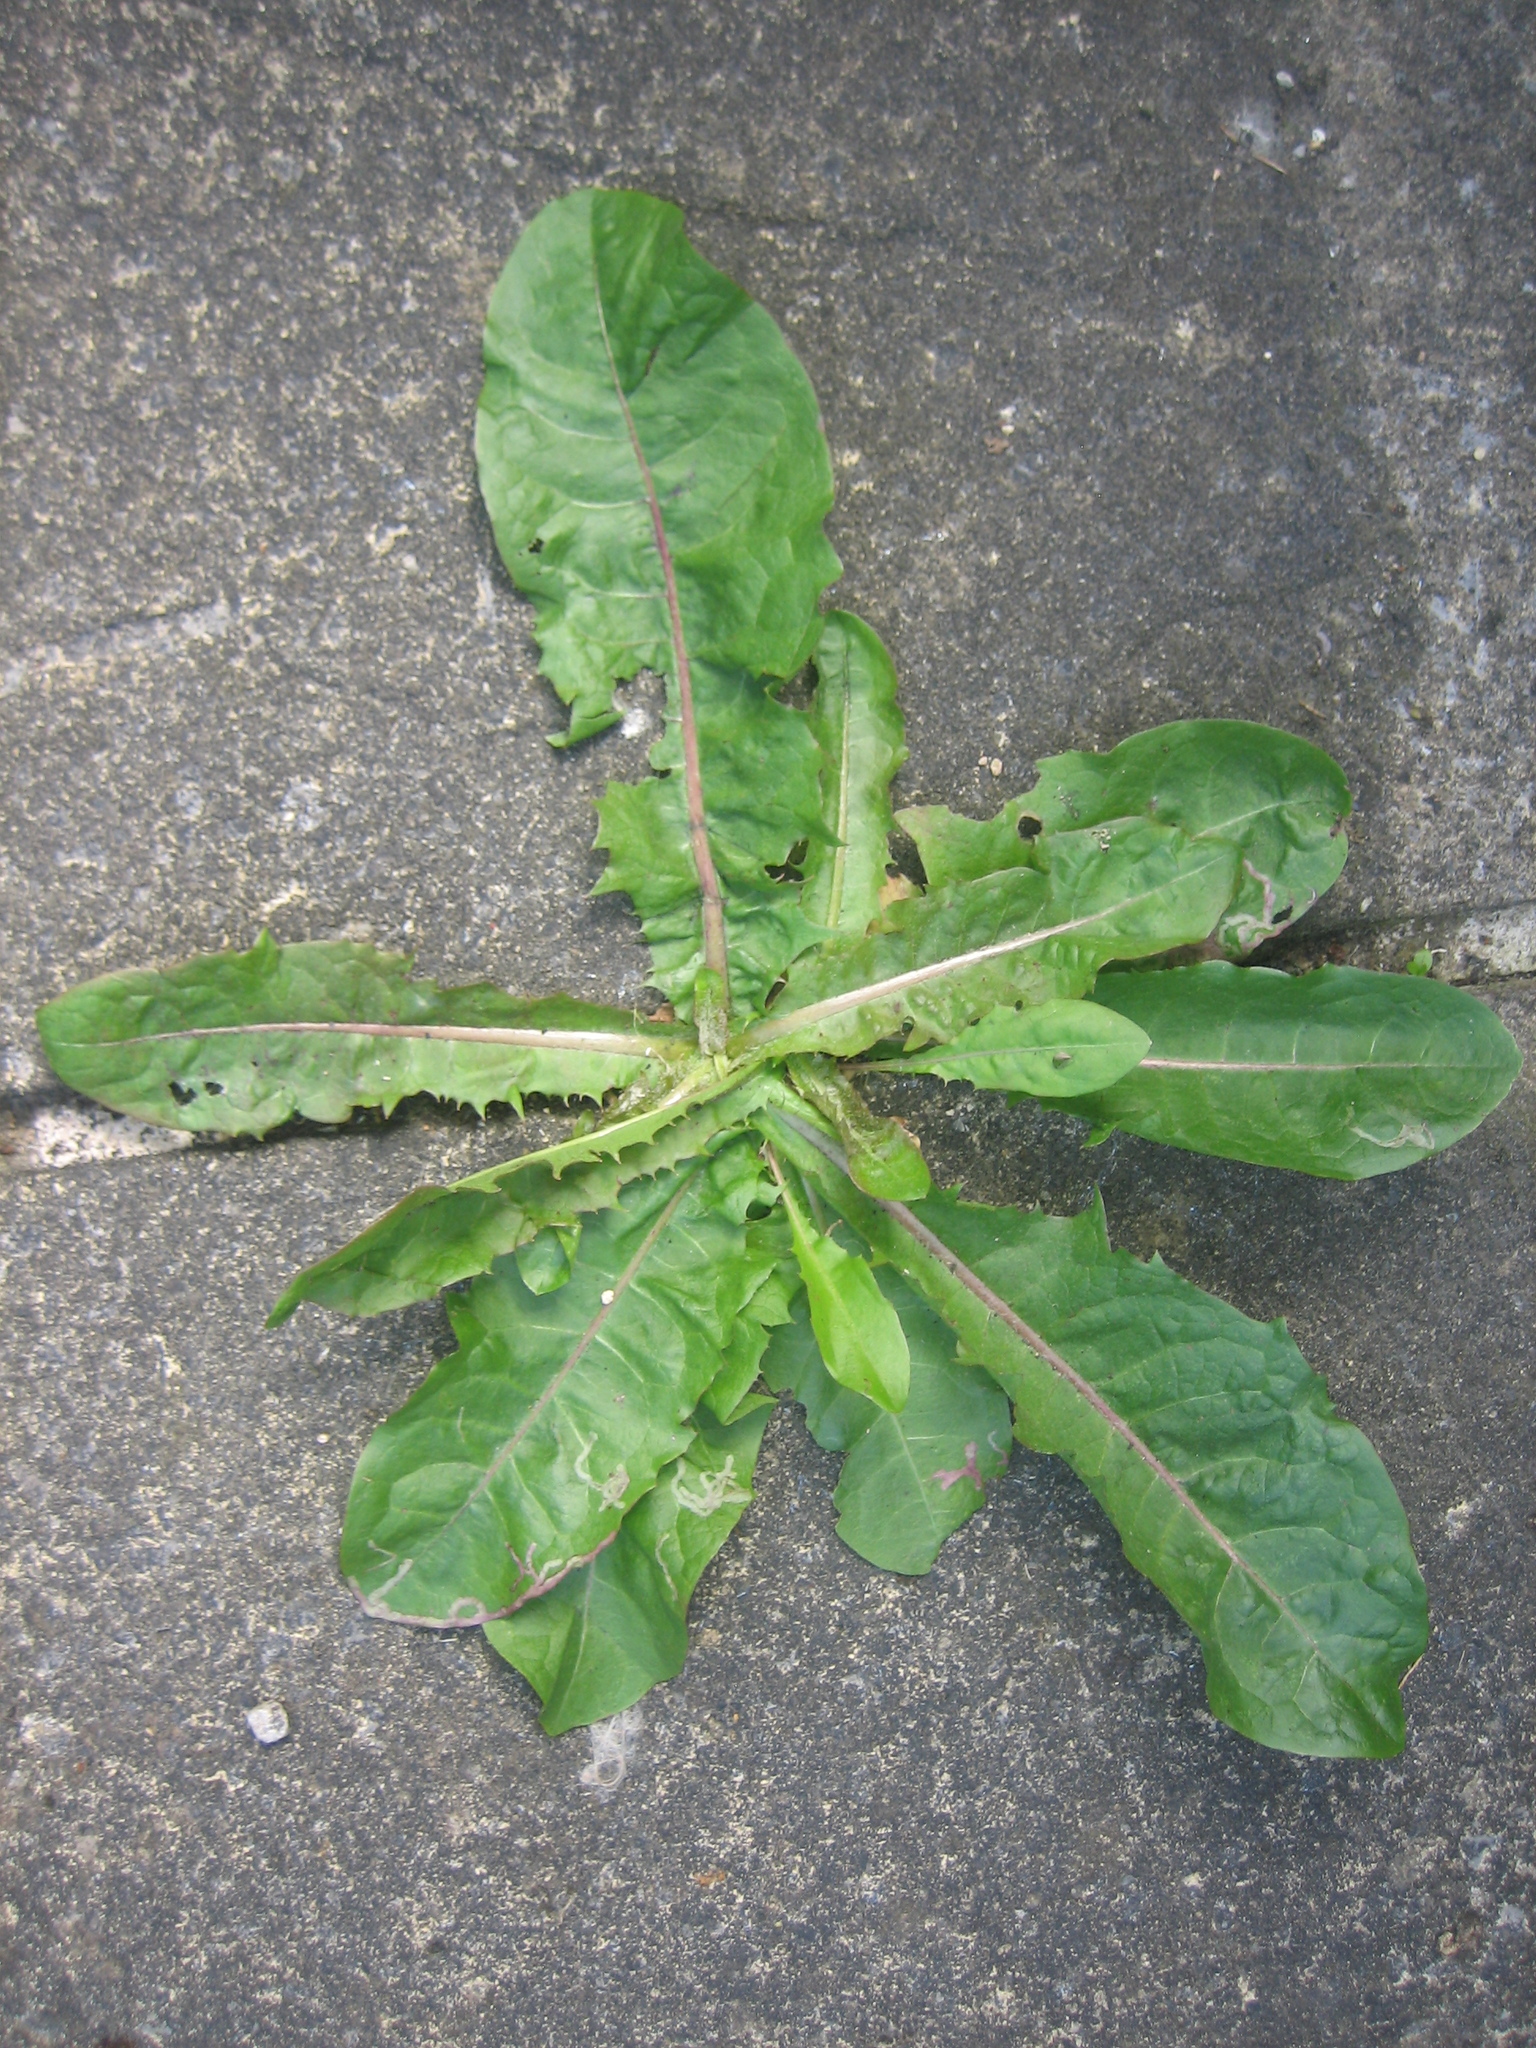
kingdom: Plantae
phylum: Tracheophyta
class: Magnoliopsida
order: Asterales
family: Asteraceae
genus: Taraxacum
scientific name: Taraxacum officinale
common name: Common dandelion
